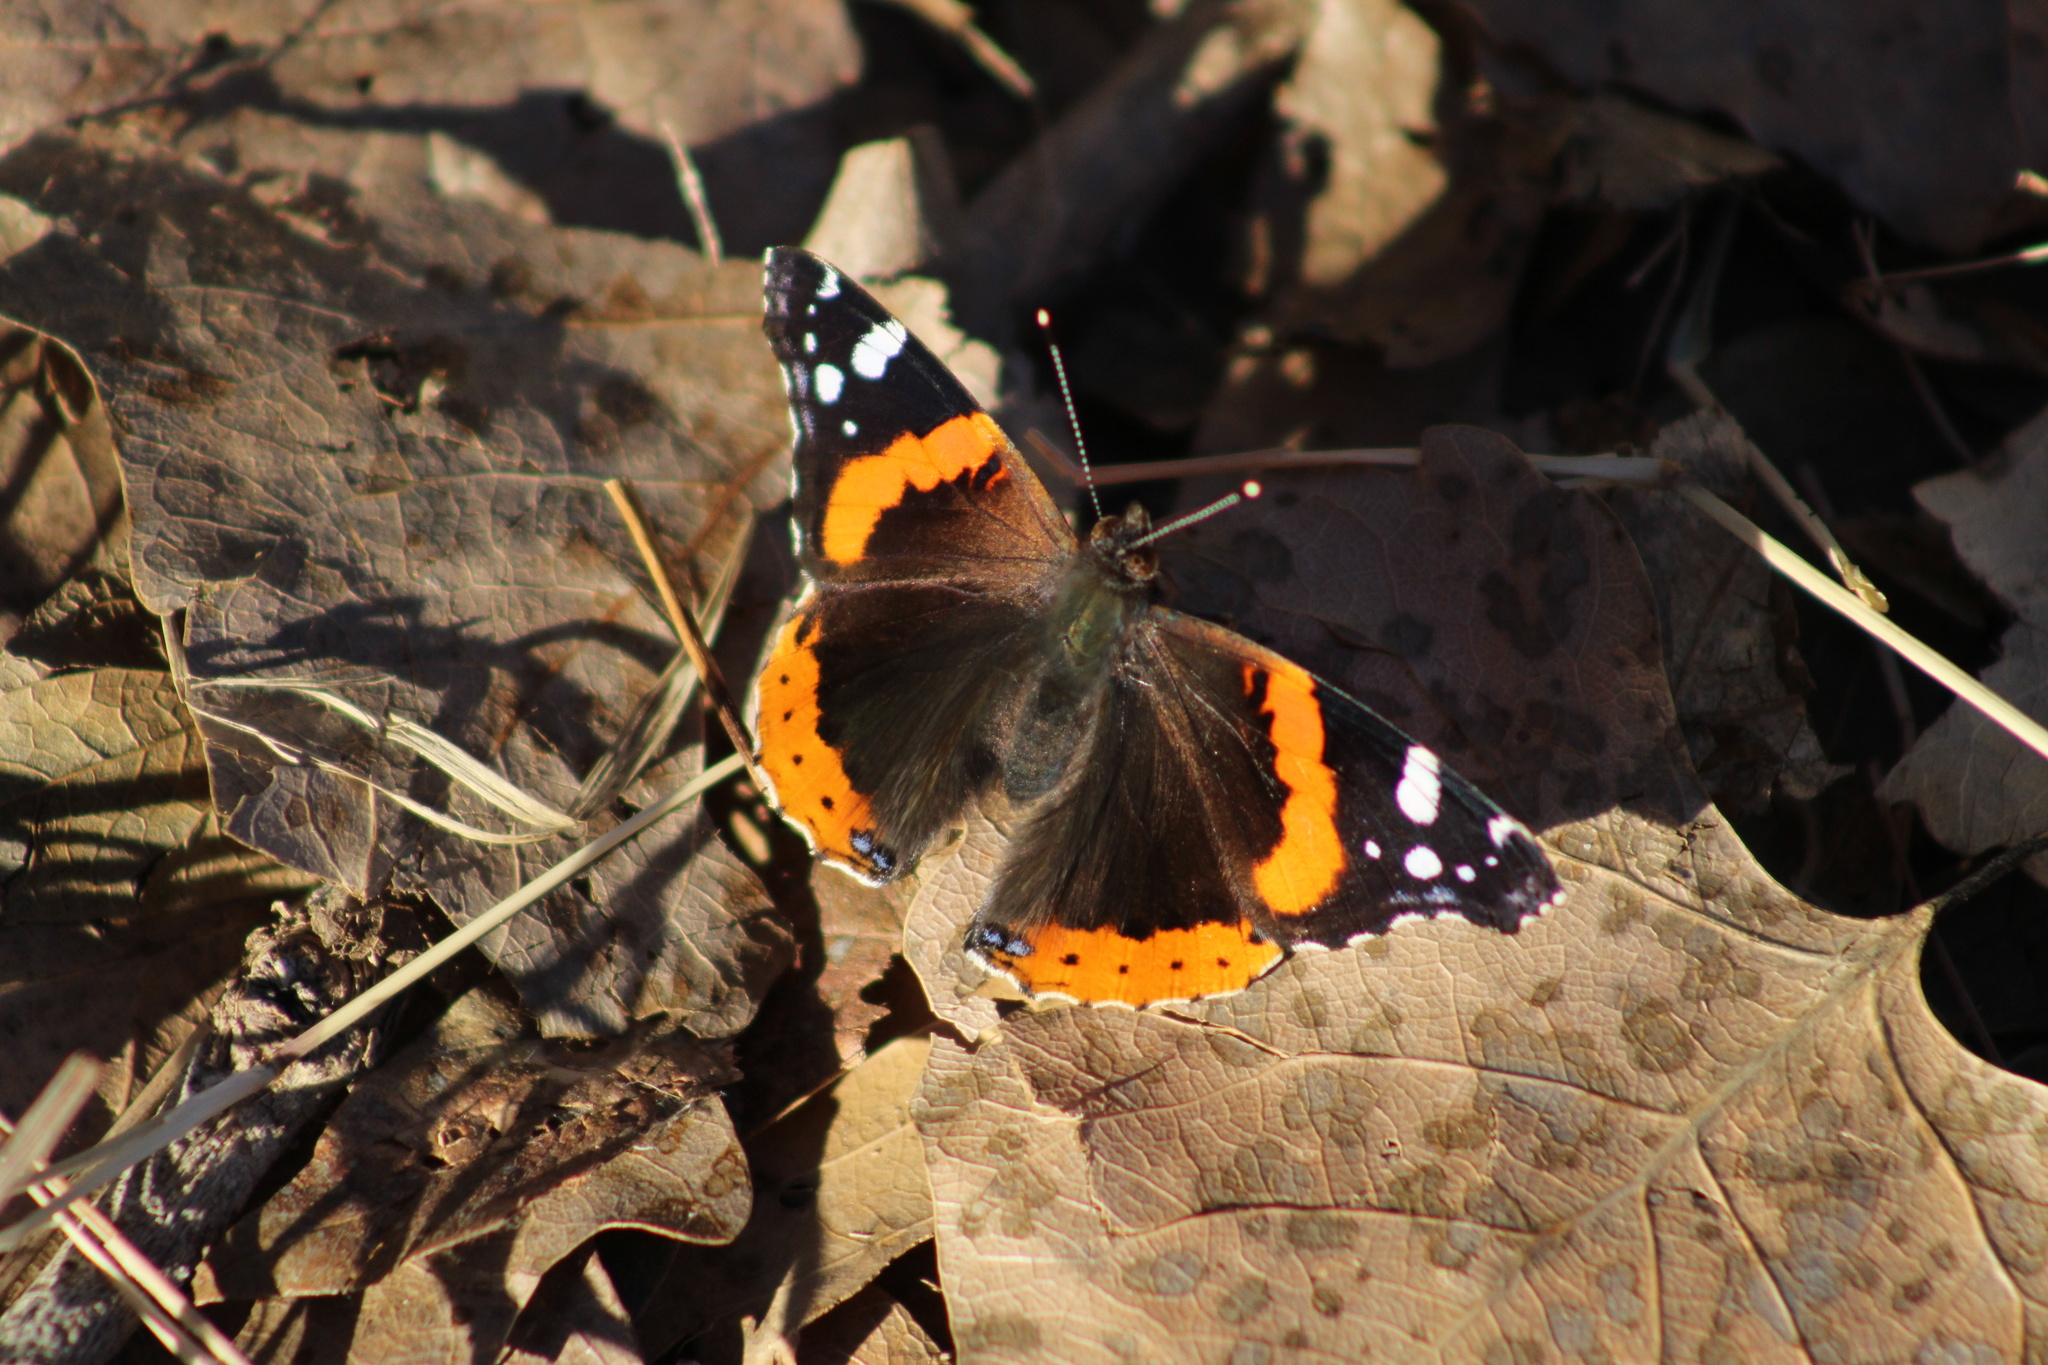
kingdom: Animalia
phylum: Arthropoda
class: Insecta
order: Lepidoptera
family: Nymphalidae
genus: Vanessa
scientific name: Vanessa atalanta
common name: Red admiral
